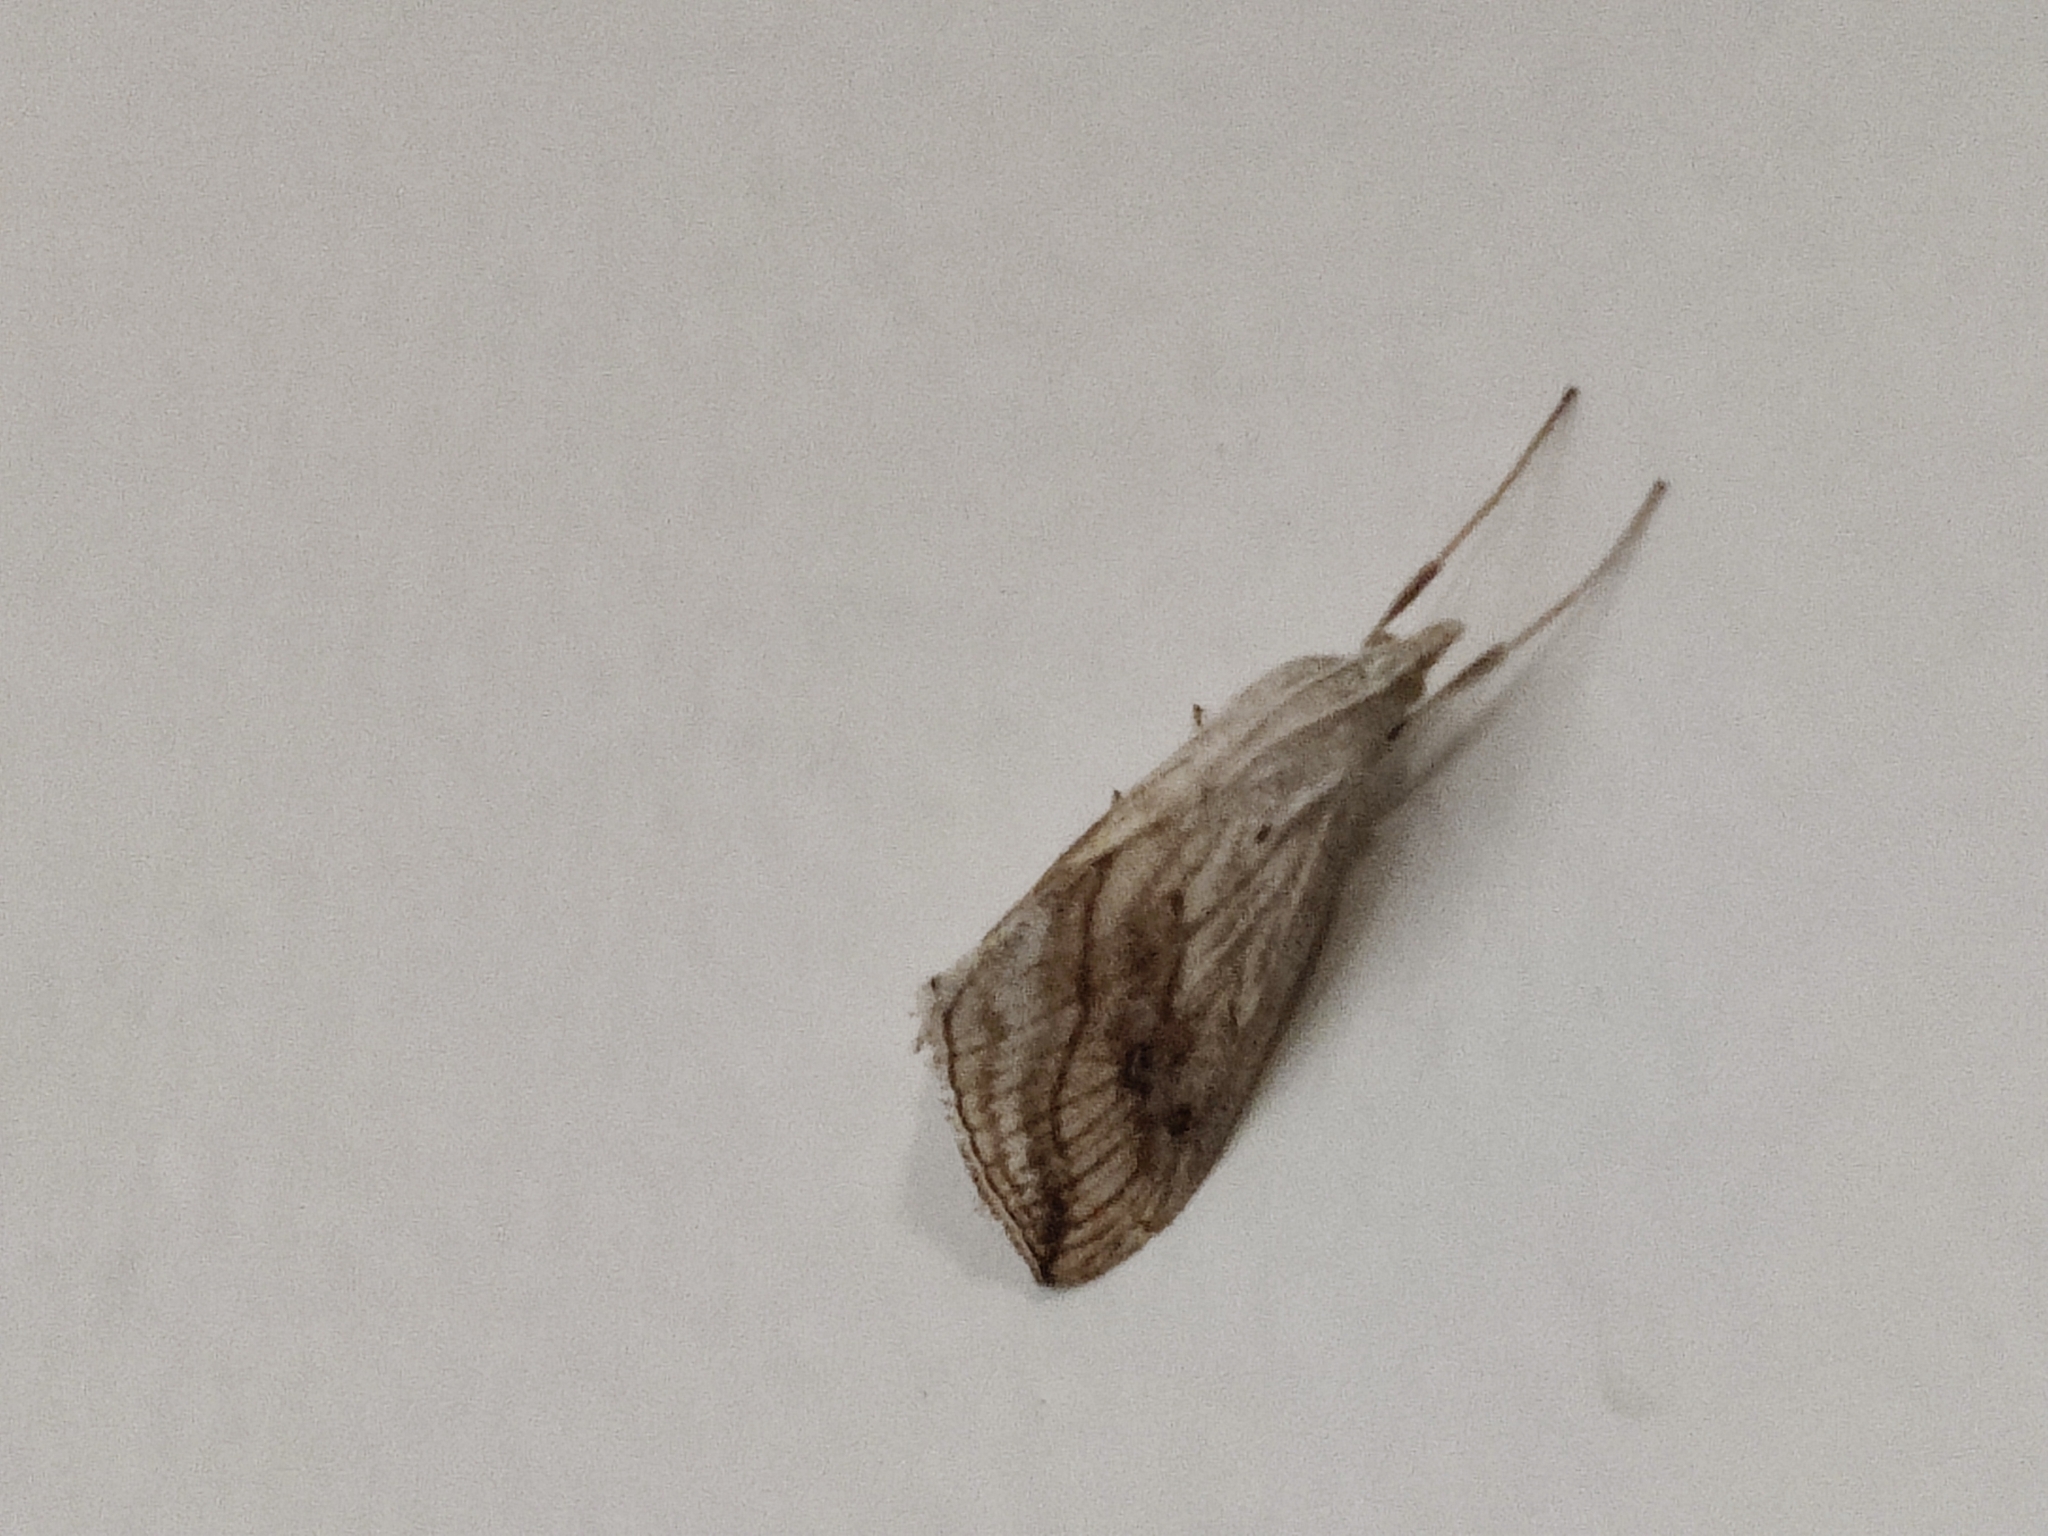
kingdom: Animalia
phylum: Arthropoda
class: Insecta
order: Lepidoptera
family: Crambidae
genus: Evergestis
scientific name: Evergestis forficalis
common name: Garden pebble
